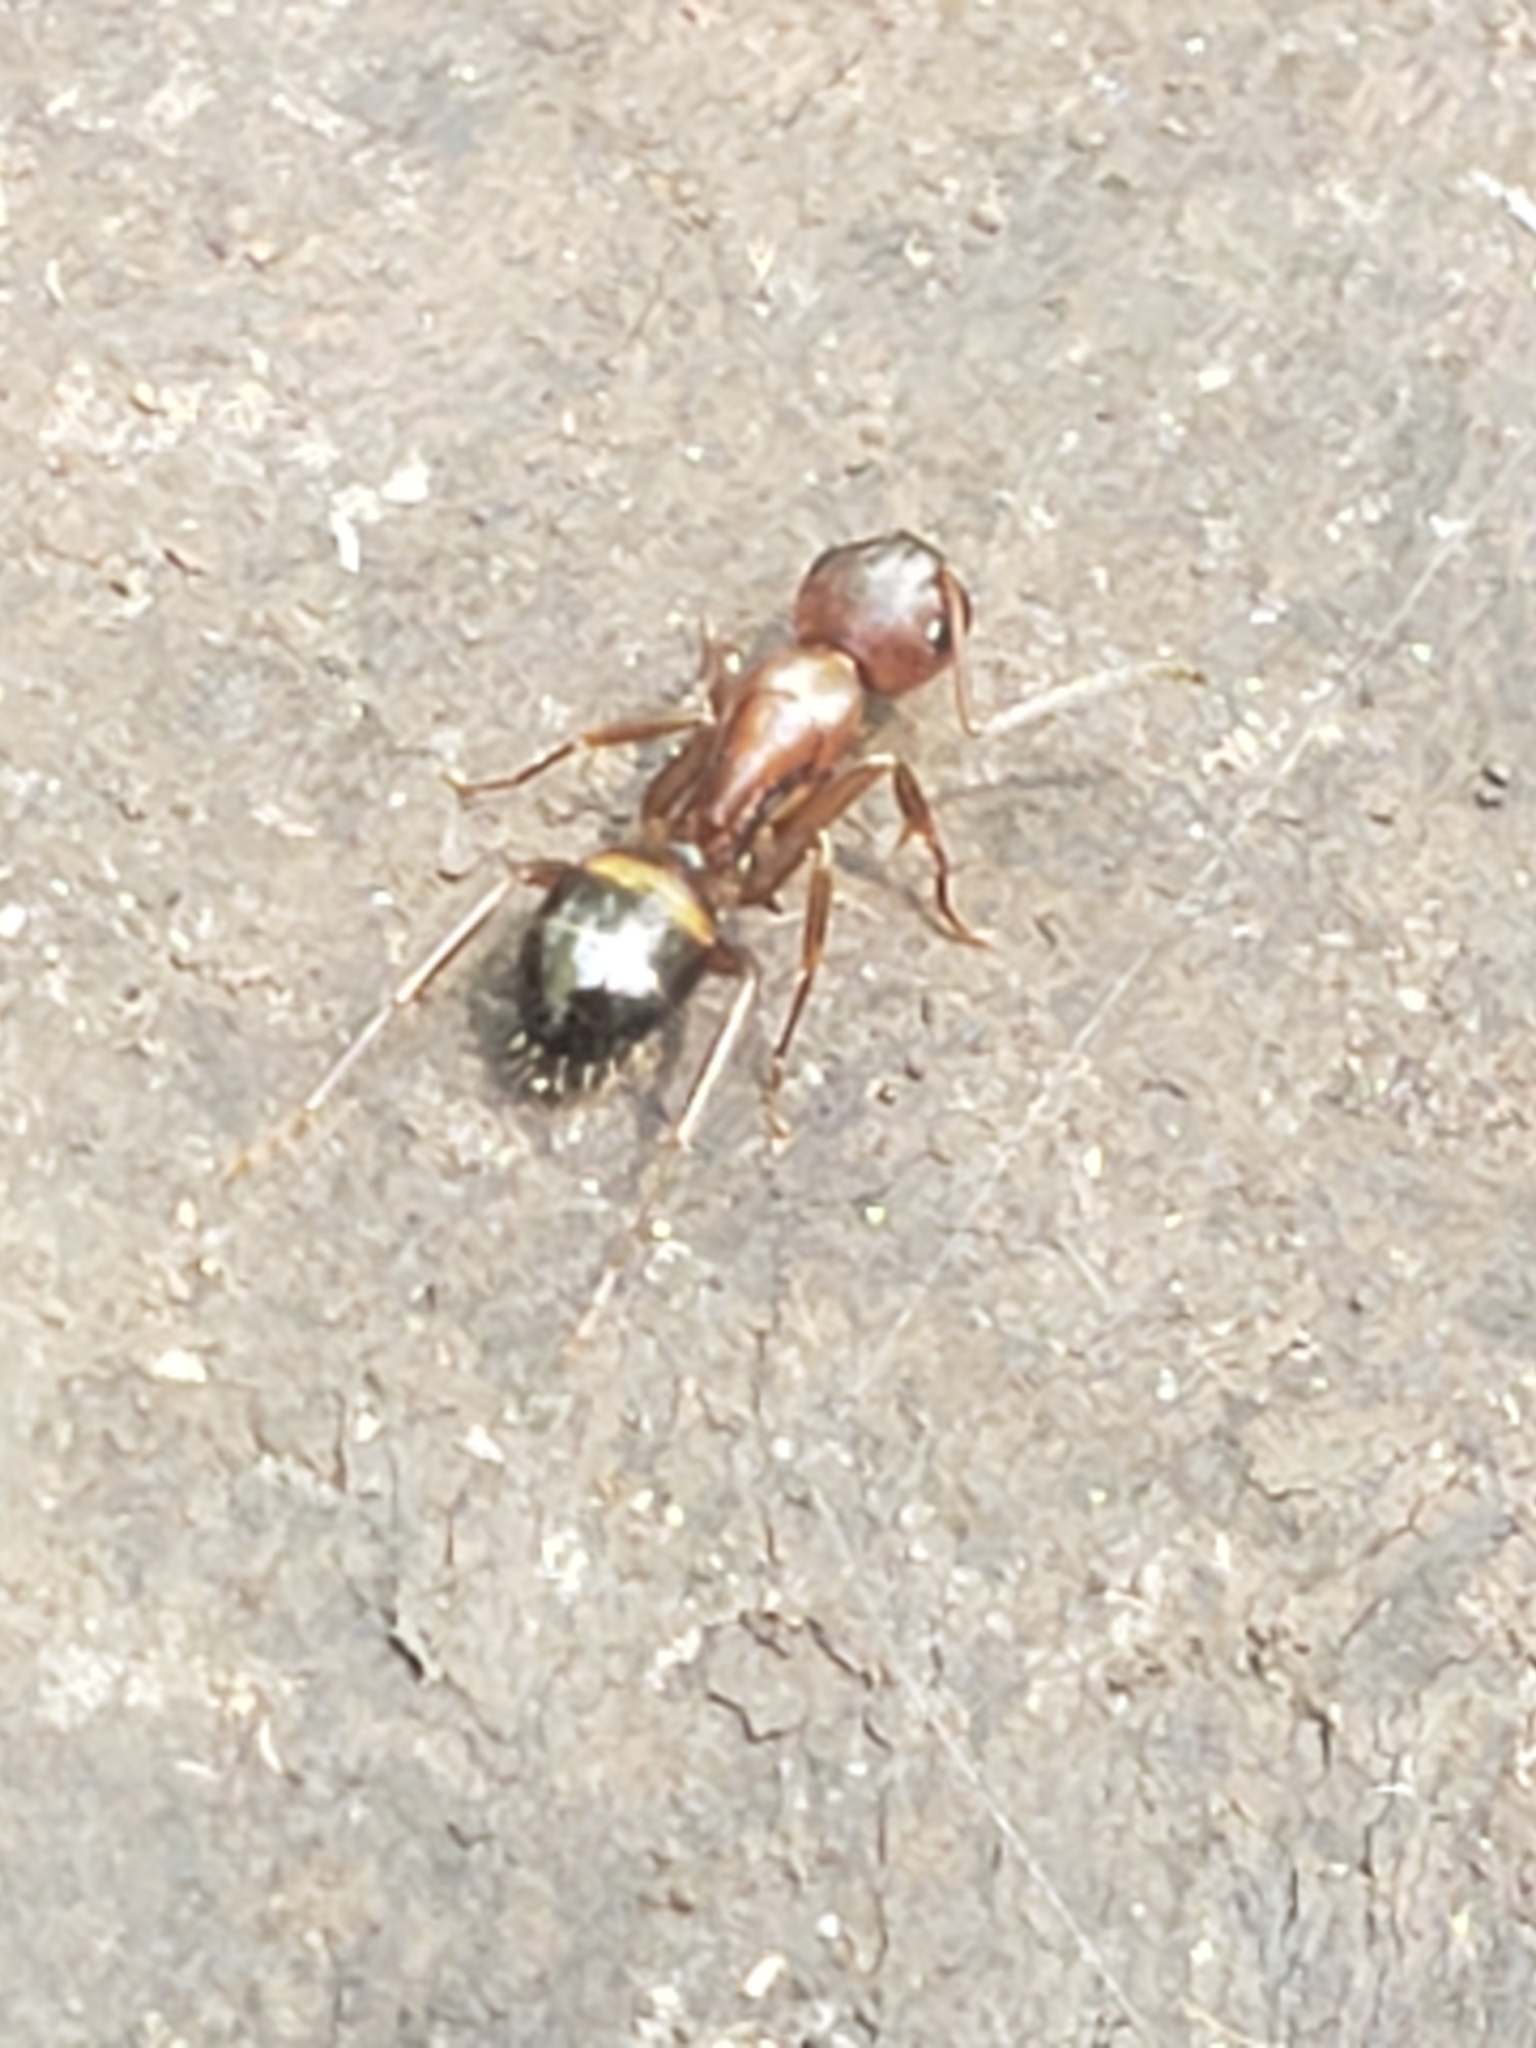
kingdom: Animalia
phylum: Arthropoda
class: Insecta
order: Hymenoptera
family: Formicidae
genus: Camponotus
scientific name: Camponotus subbarbatus
